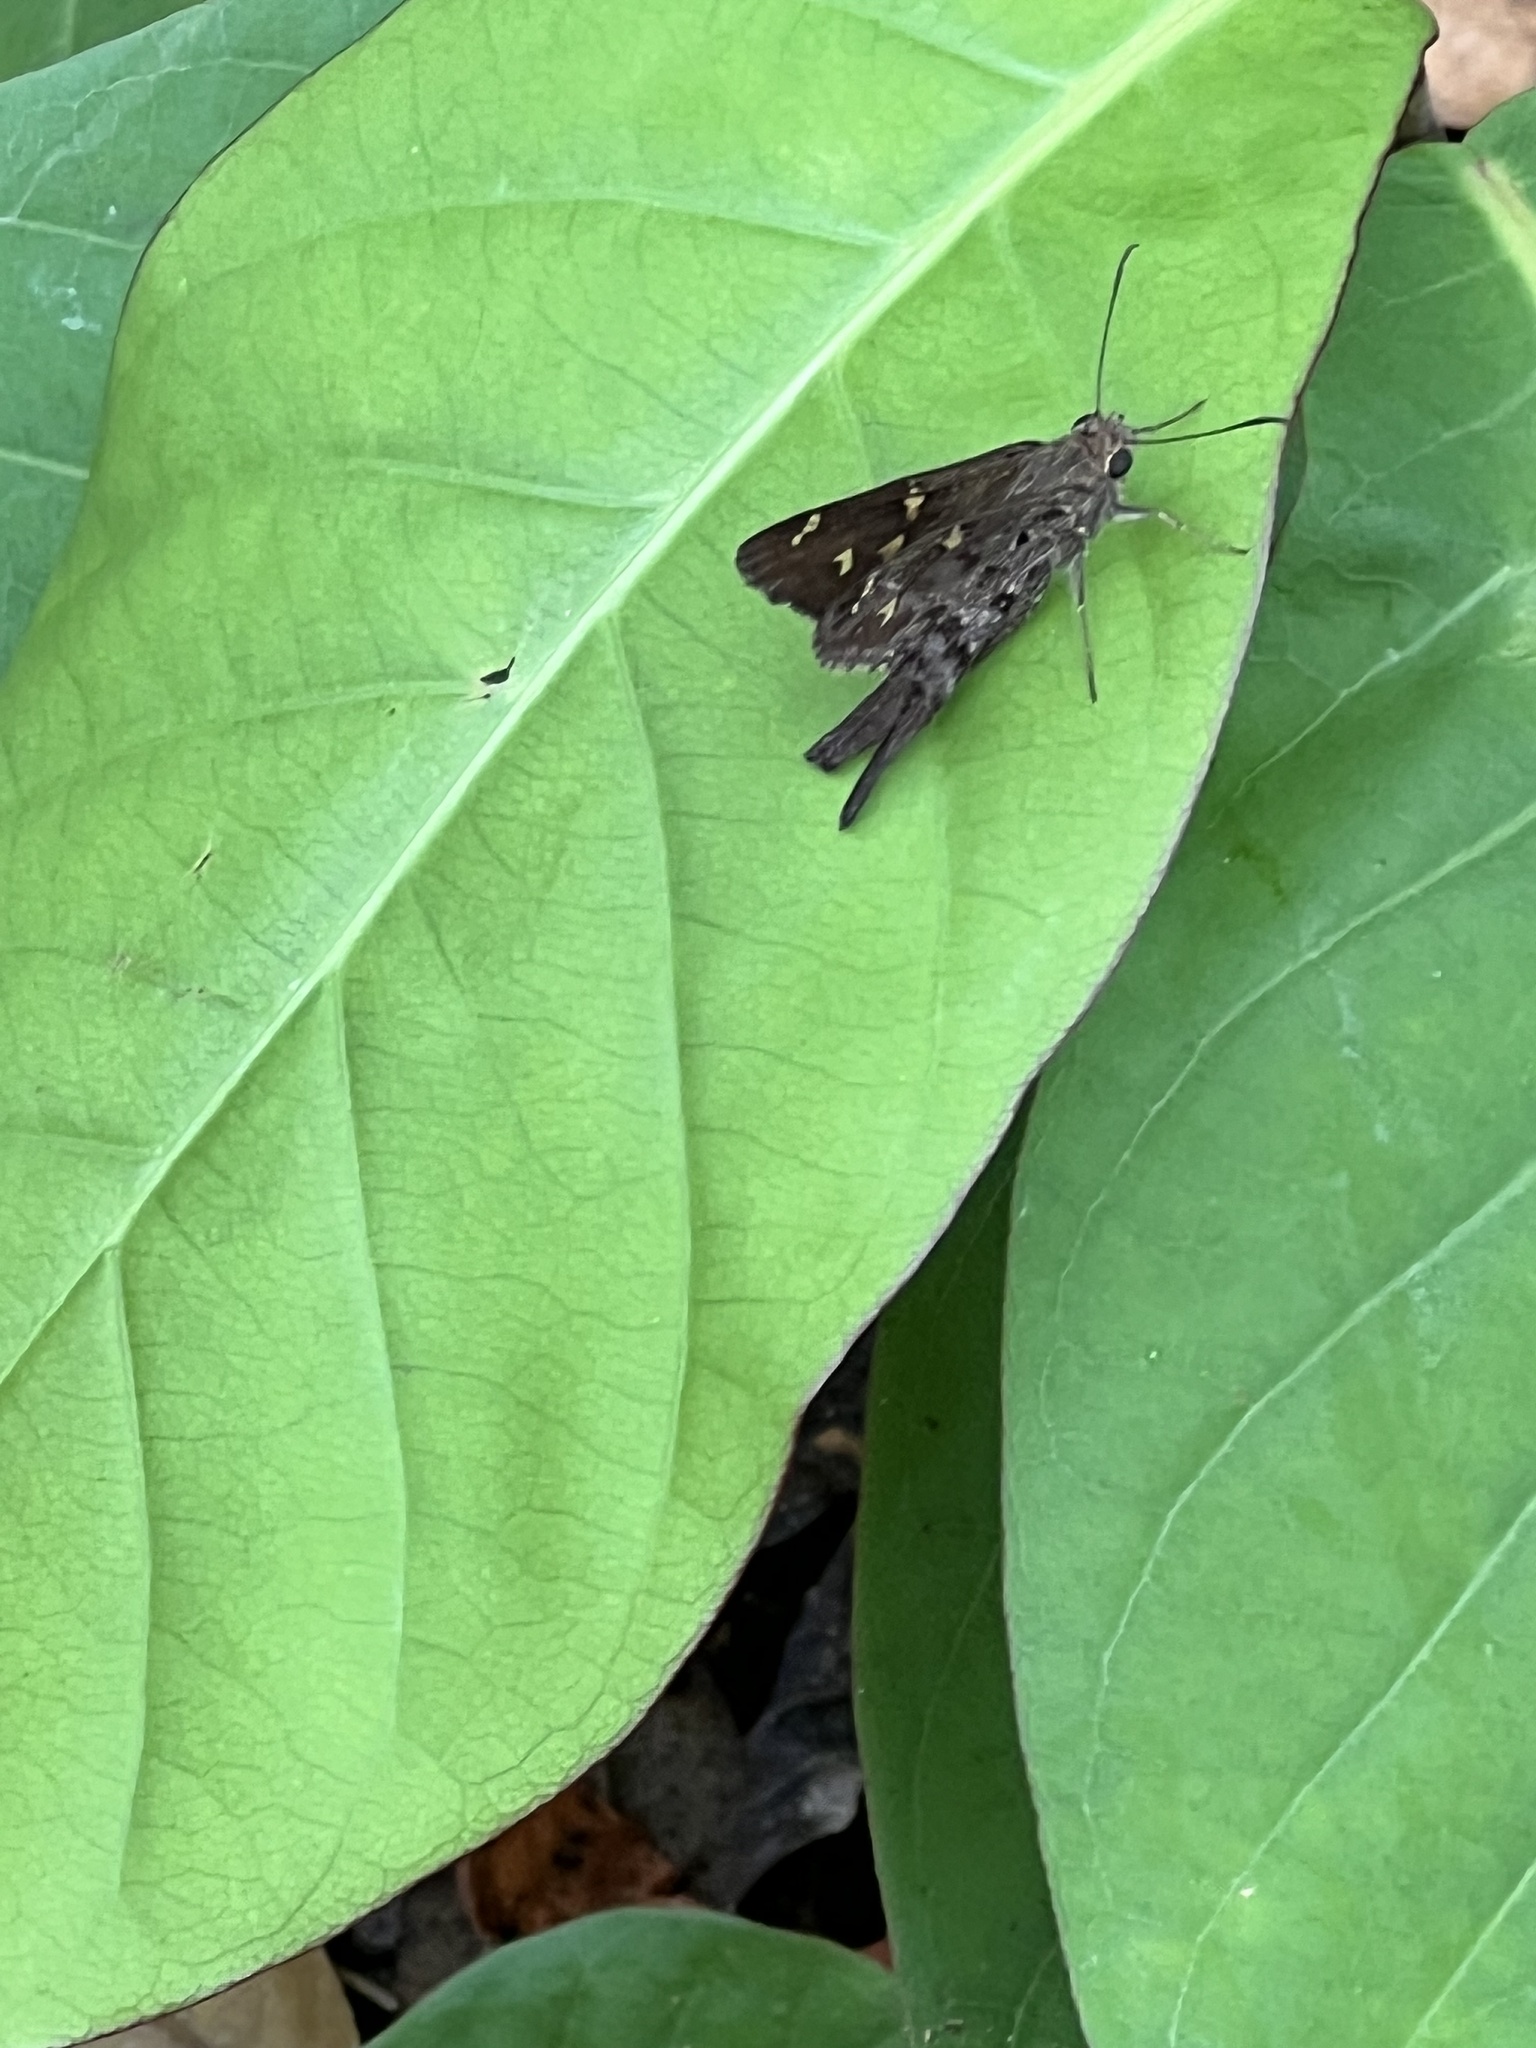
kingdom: Animalia
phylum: Arthropoda
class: Insecta
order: Lepidoptera
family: Hesperiidae
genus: Thorybes
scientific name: Thorybes
